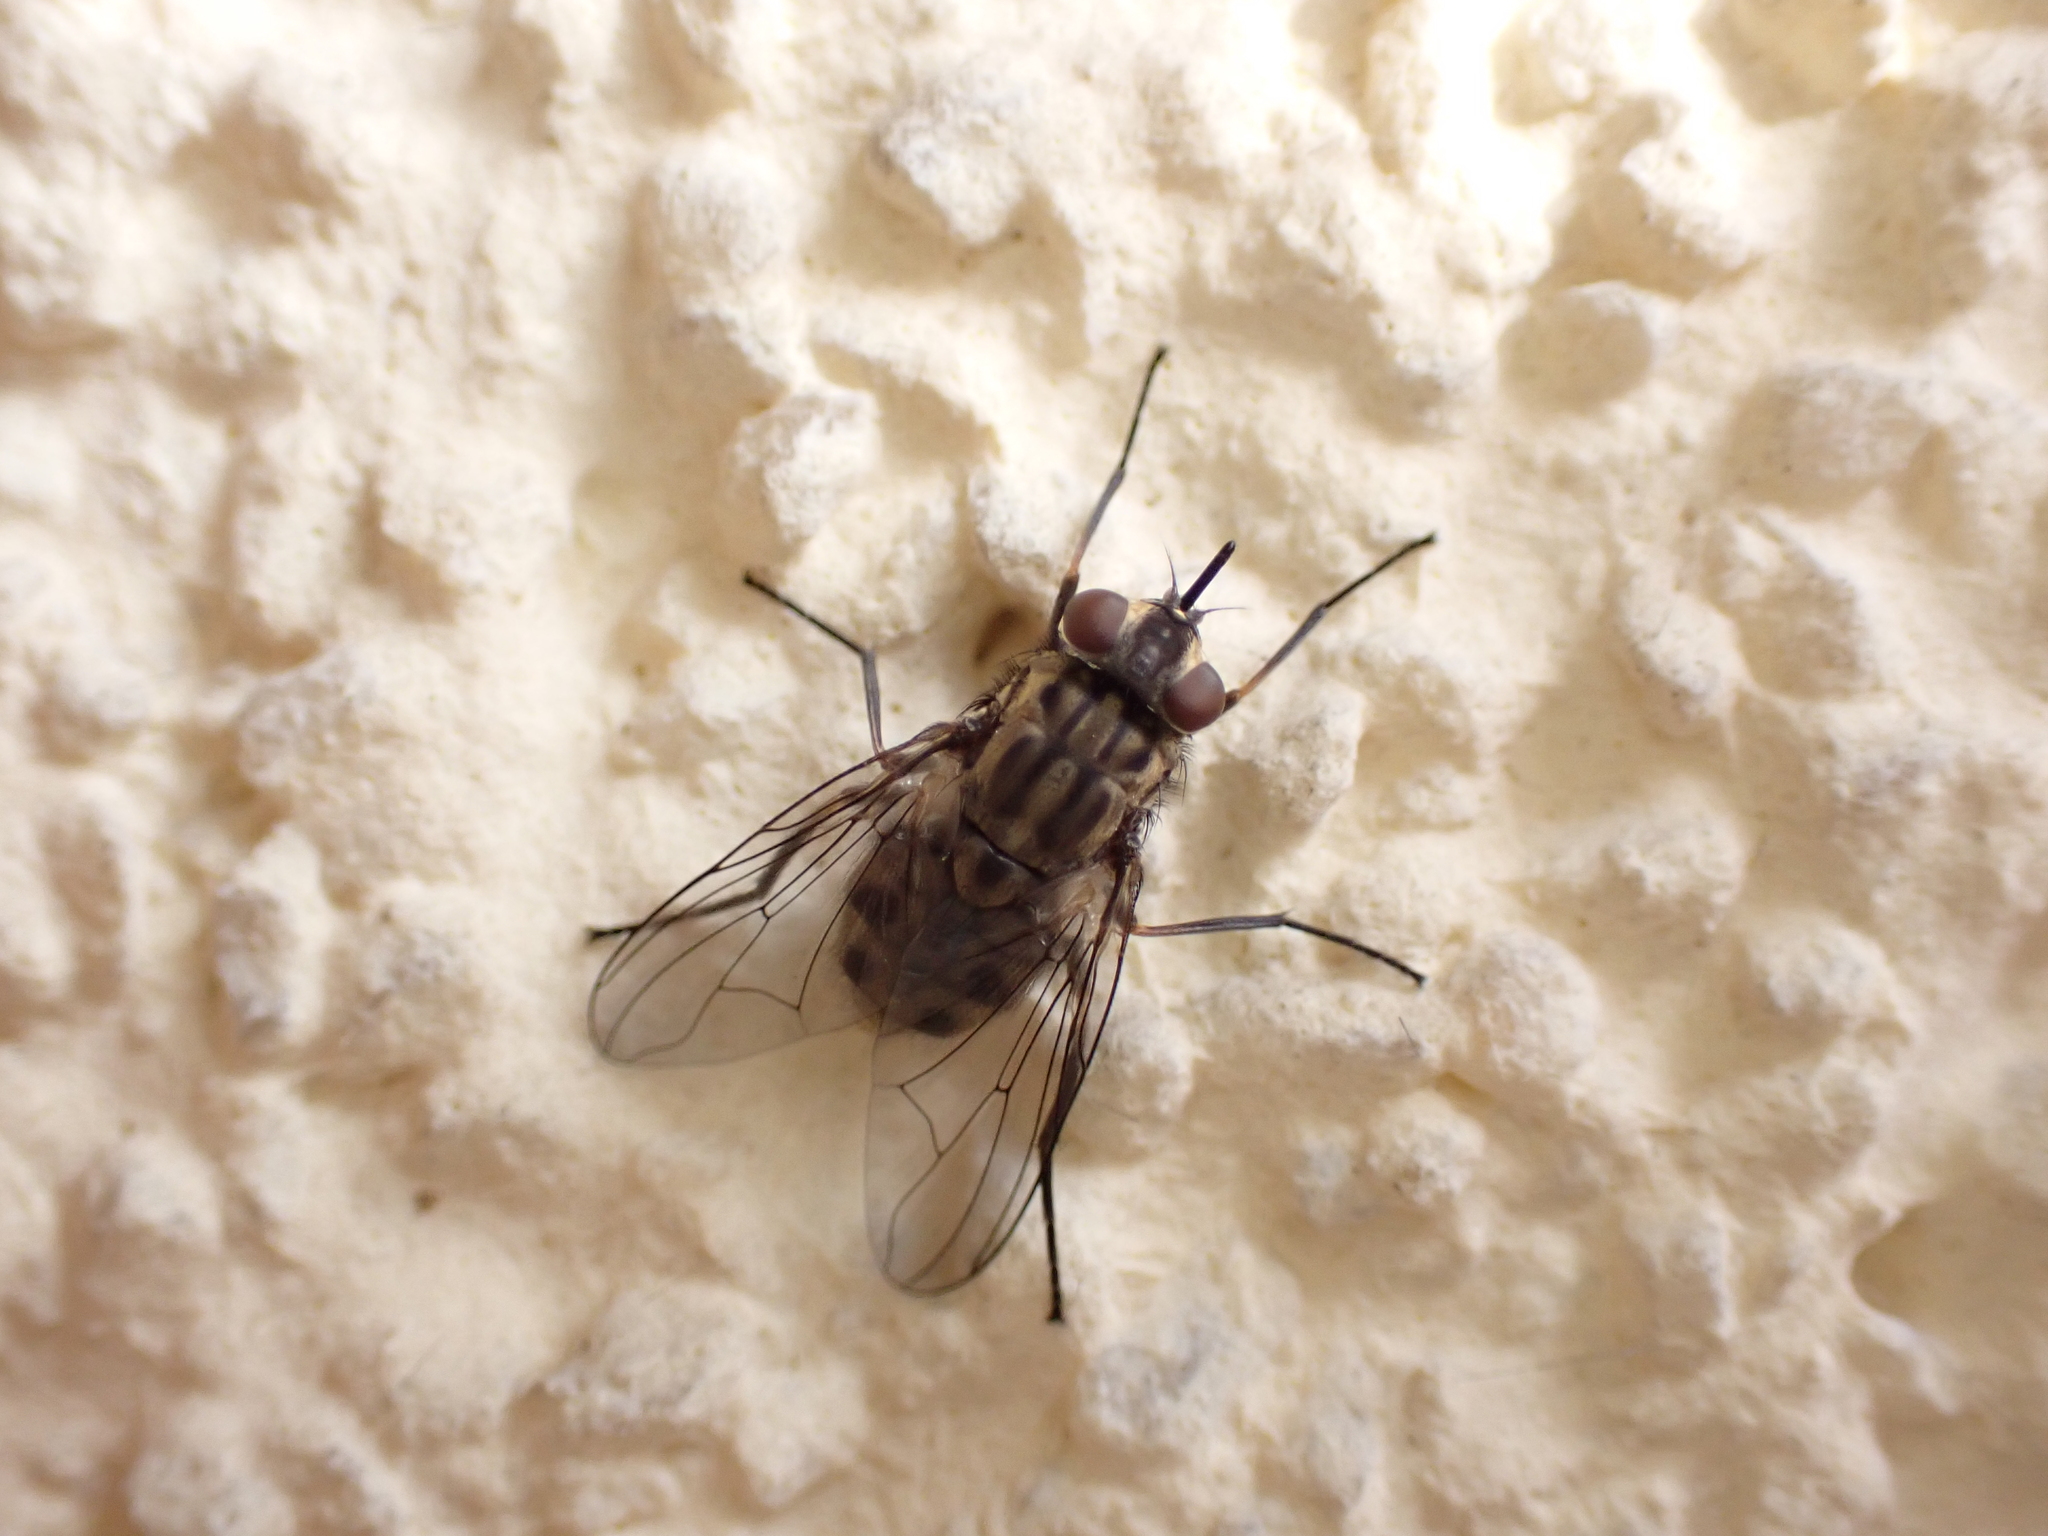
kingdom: Animalia
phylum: Arthropoda
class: Insecta
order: Diptera
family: Muscidae
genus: Stomoxys
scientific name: Stomoxys calcitrans
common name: Stable fly
